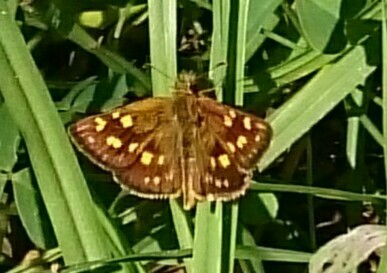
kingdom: Animalia
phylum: Arthropoda
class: Insecta
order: Lepidoptera
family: Hesperiidae
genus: Metisella
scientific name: Metisella malgacha
